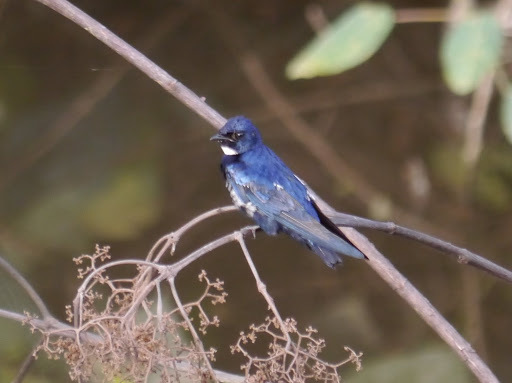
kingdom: Animalia
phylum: Chordata
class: Aves
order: Passeriformes
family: Hirundinidae
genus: Hirundo
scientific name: Hirundo nigrita
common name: White-bibbed swallow
